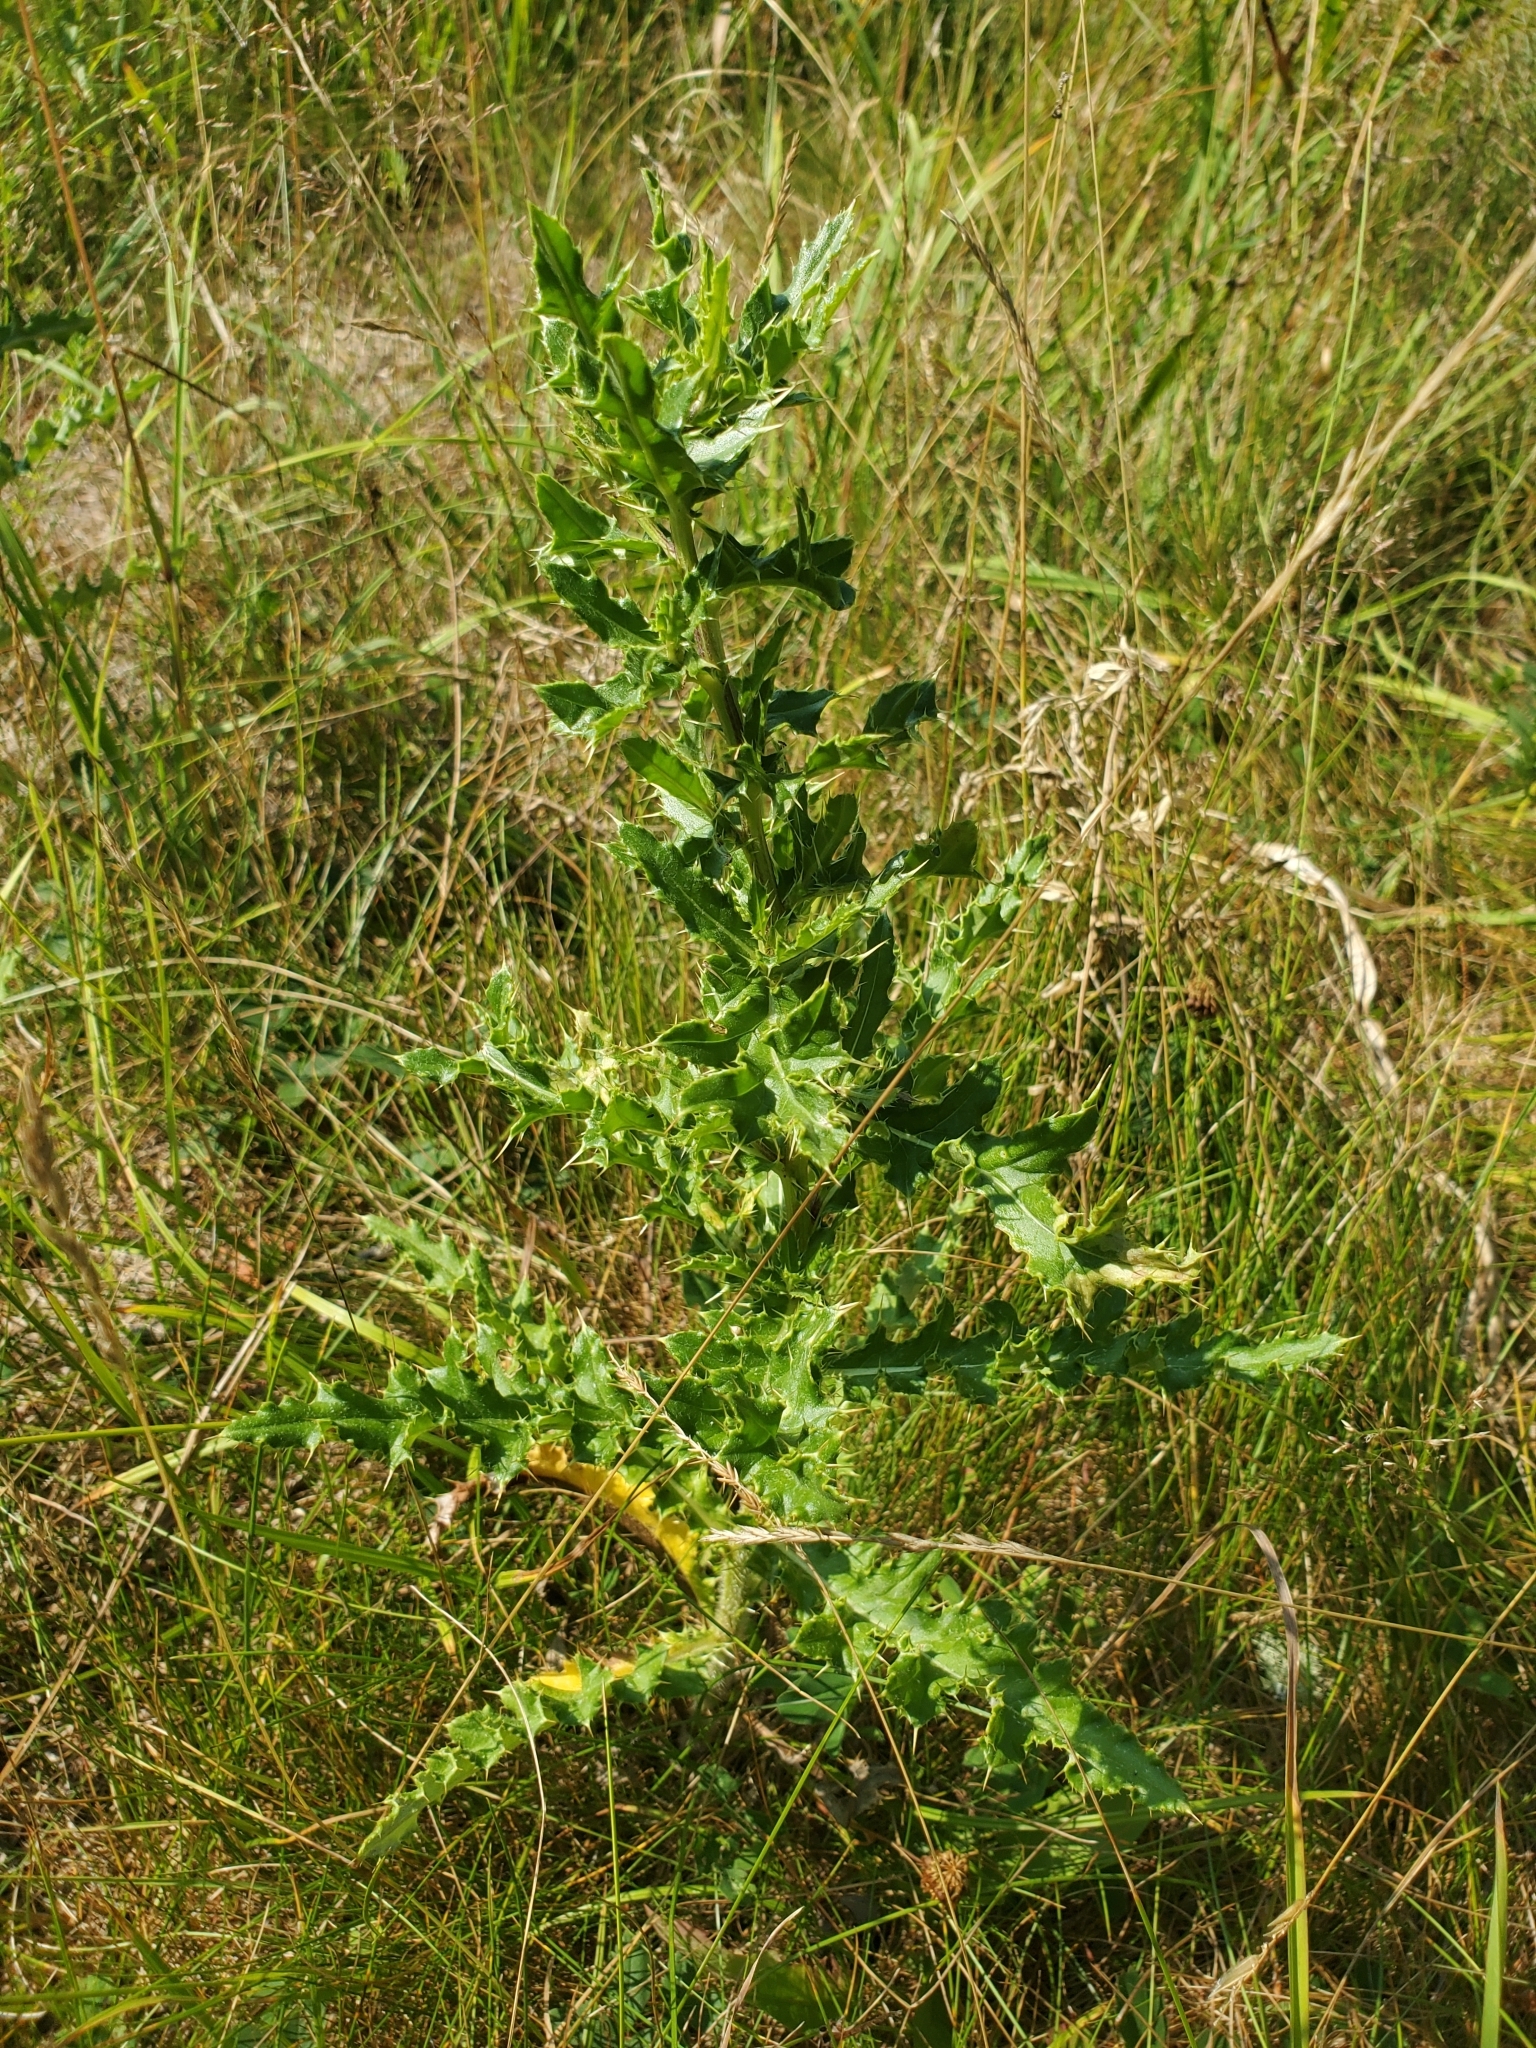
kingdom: Plantae
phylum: Tracheophyta
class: Magnoliopsida
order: Asterales
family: Asteraceae
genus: Cirsium
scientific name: Cirsium arvense
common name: Creeping thistle
